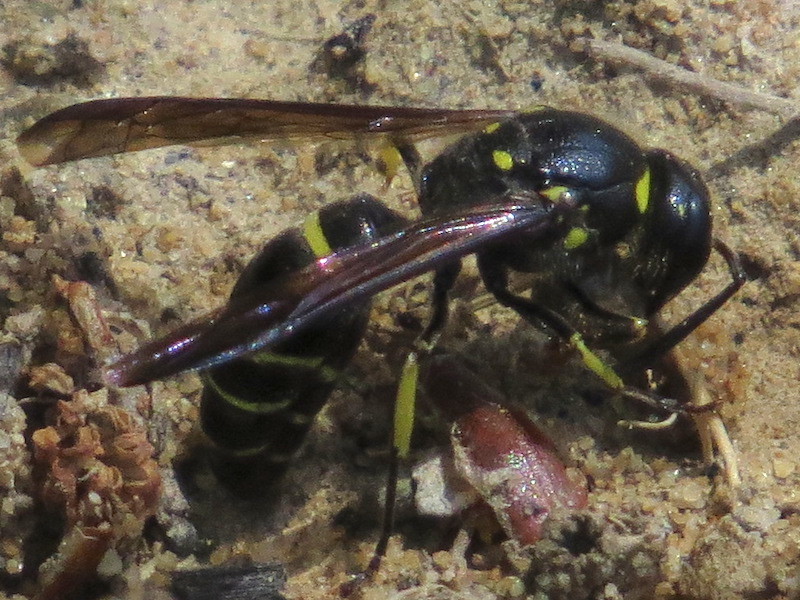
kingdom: Animalia
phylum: Arthropoda
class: Insecta
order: Hymenoptera
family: Vespidae
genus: Ancistrocerus
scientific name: Ancistrocerus
